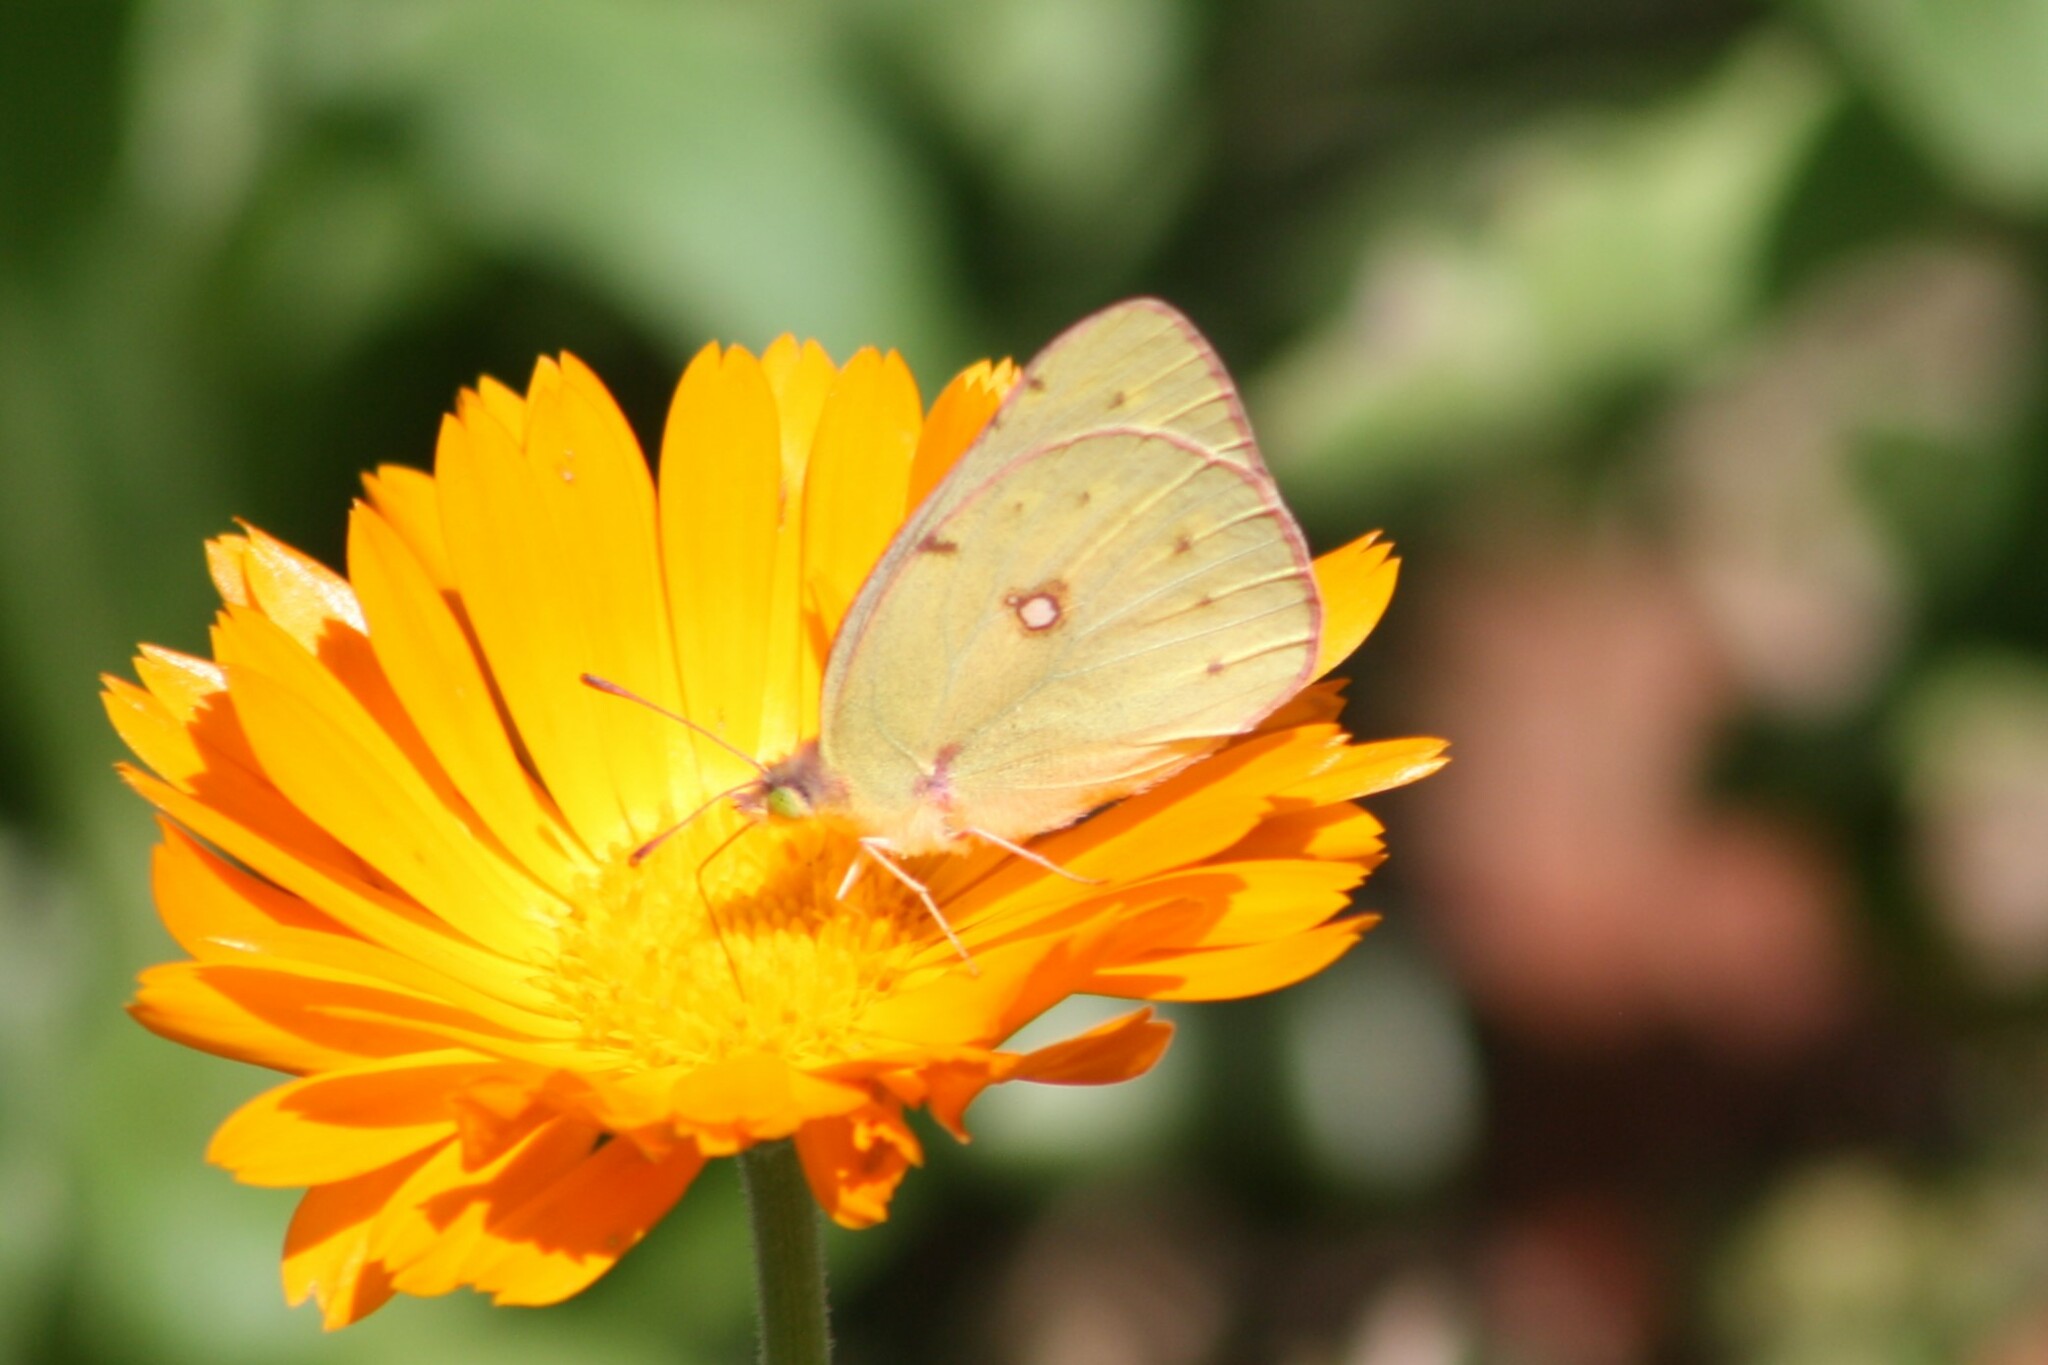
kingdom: Animalia
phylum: Arthropoda
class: Insecta
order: Lepidoptera
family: Pieridae
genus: Colias
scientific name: Colias eurytheme
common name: Alfalfa butterfly
